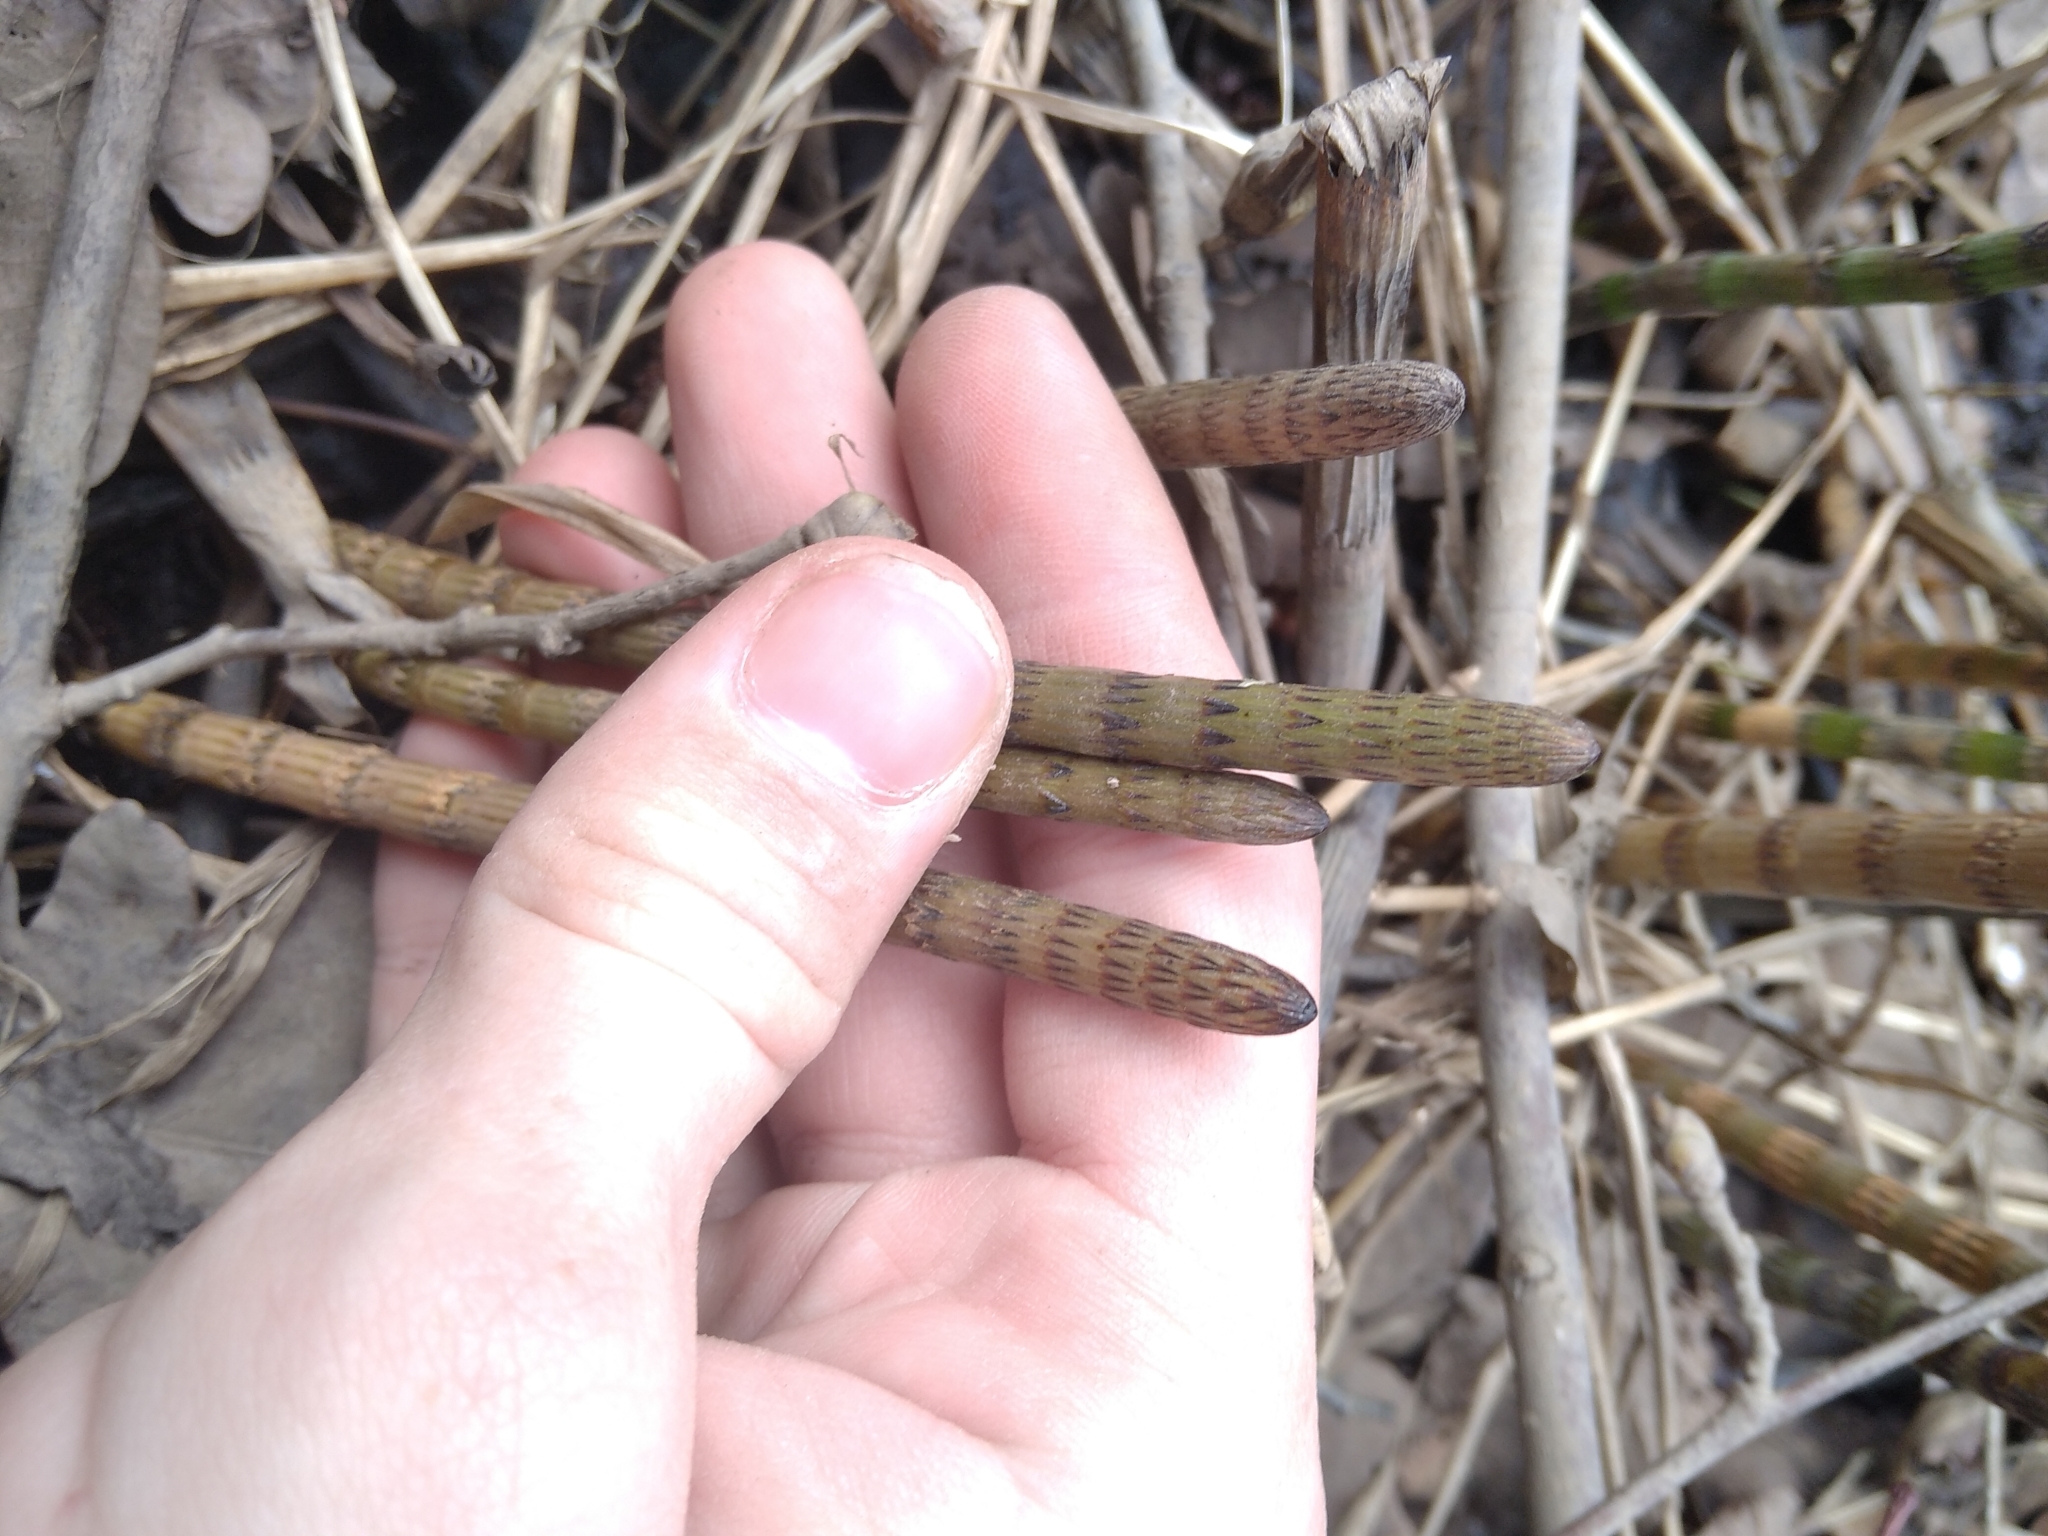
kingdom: Plantae
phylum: Tracheophyta
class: Polypodiopsida
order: Equisetales
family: Equisetaceae
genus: Equisetum
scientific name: Equisetum fluviatile
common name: Water horsetail
